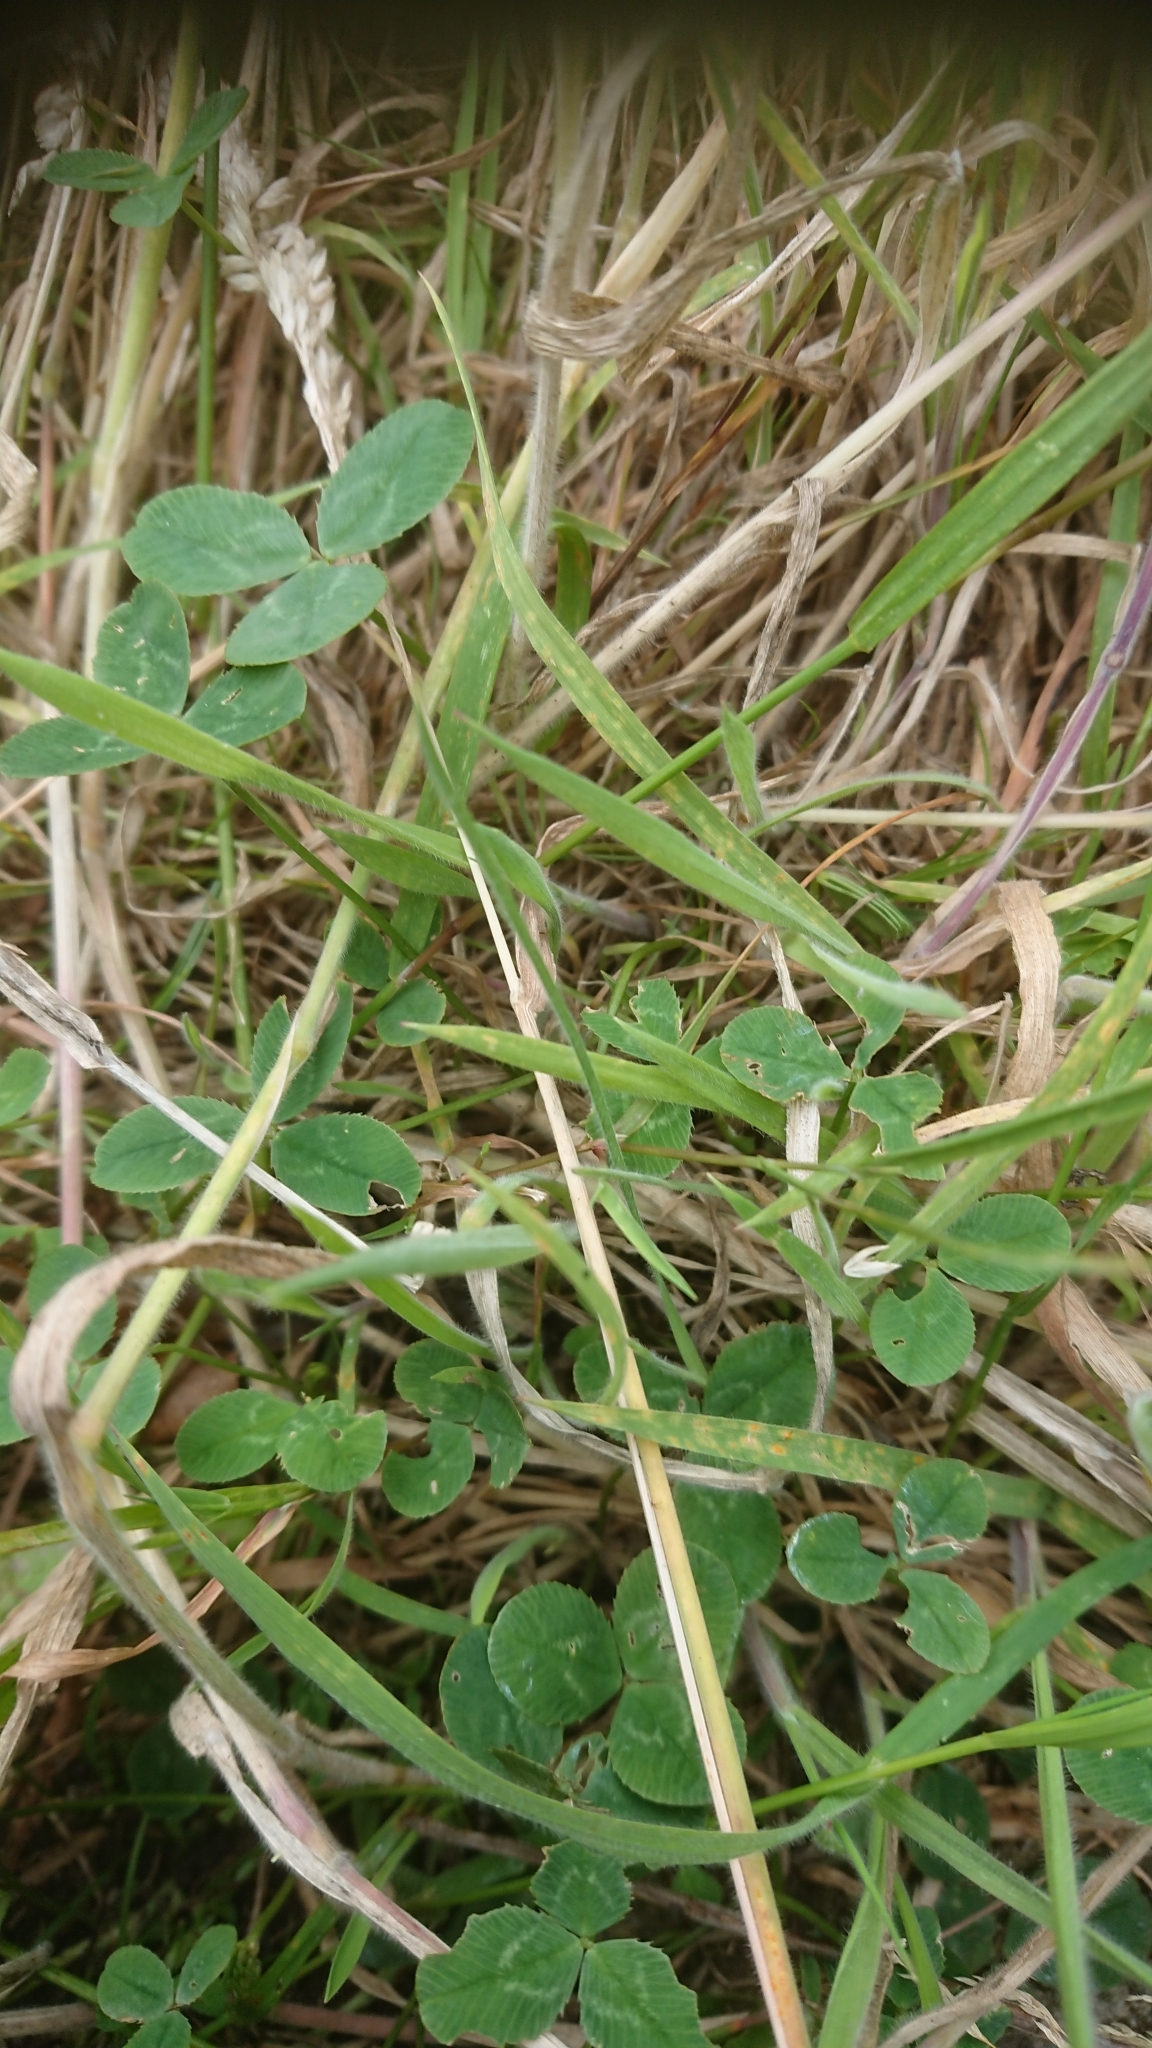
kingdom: Plantae
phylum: Tracheophyta
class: Magnoliopsida
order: Fabales
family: Fabaceae
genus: Trifolium
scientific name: Trifolium repens
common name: White clover
